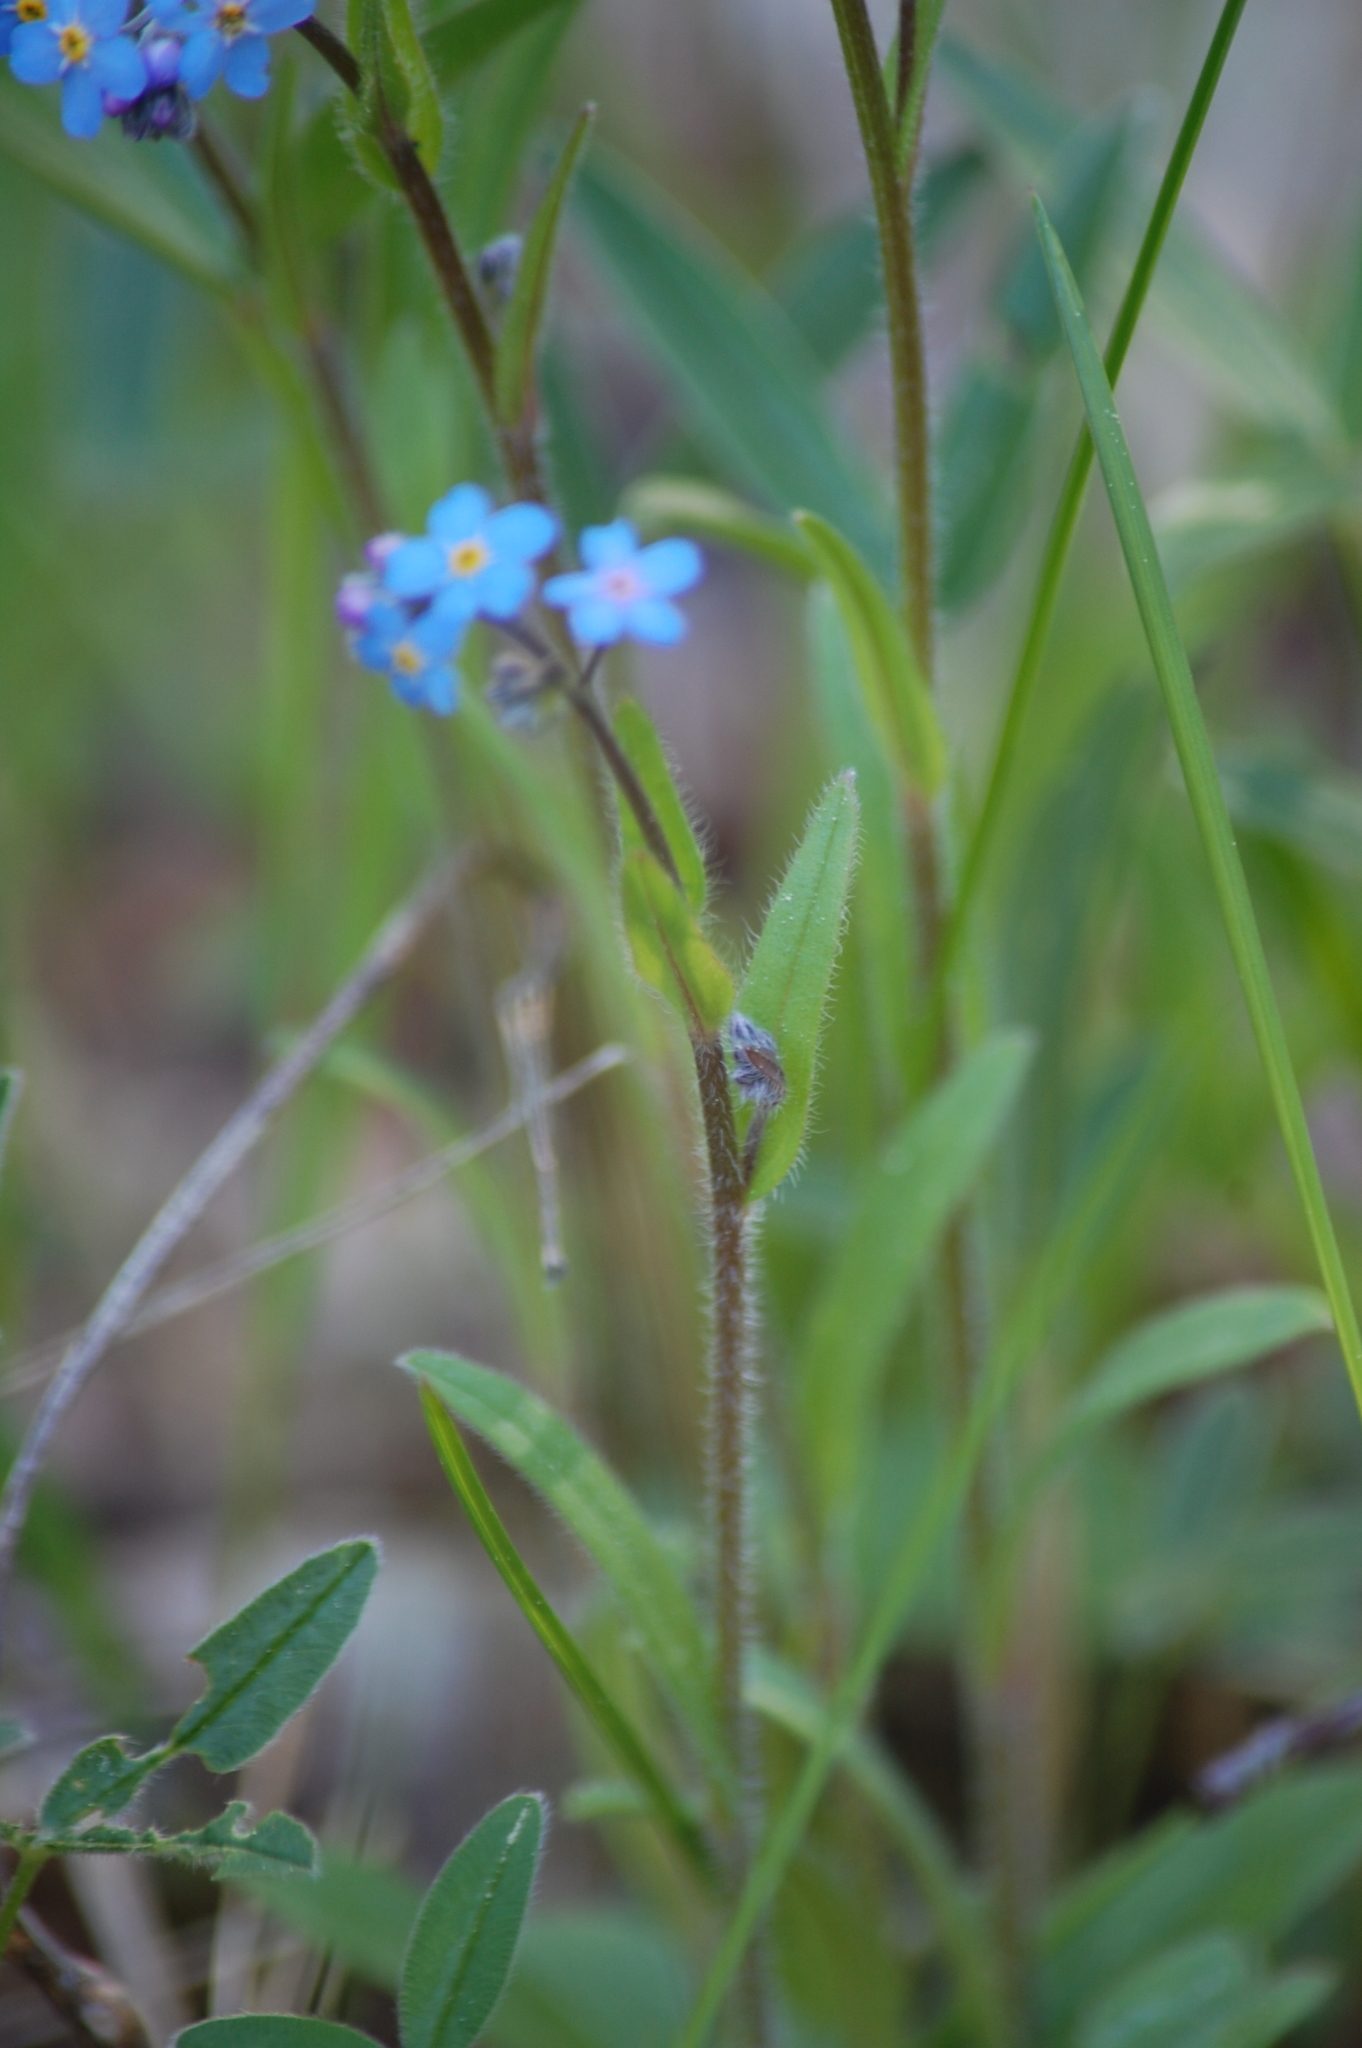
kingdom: Plantae
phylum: Tracheophyta
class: Magnoliopsida
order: Boraginales
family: Boraginaceae
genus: Myosotis
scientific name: Myosotis sylvatica
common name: Wood forget-me-not
